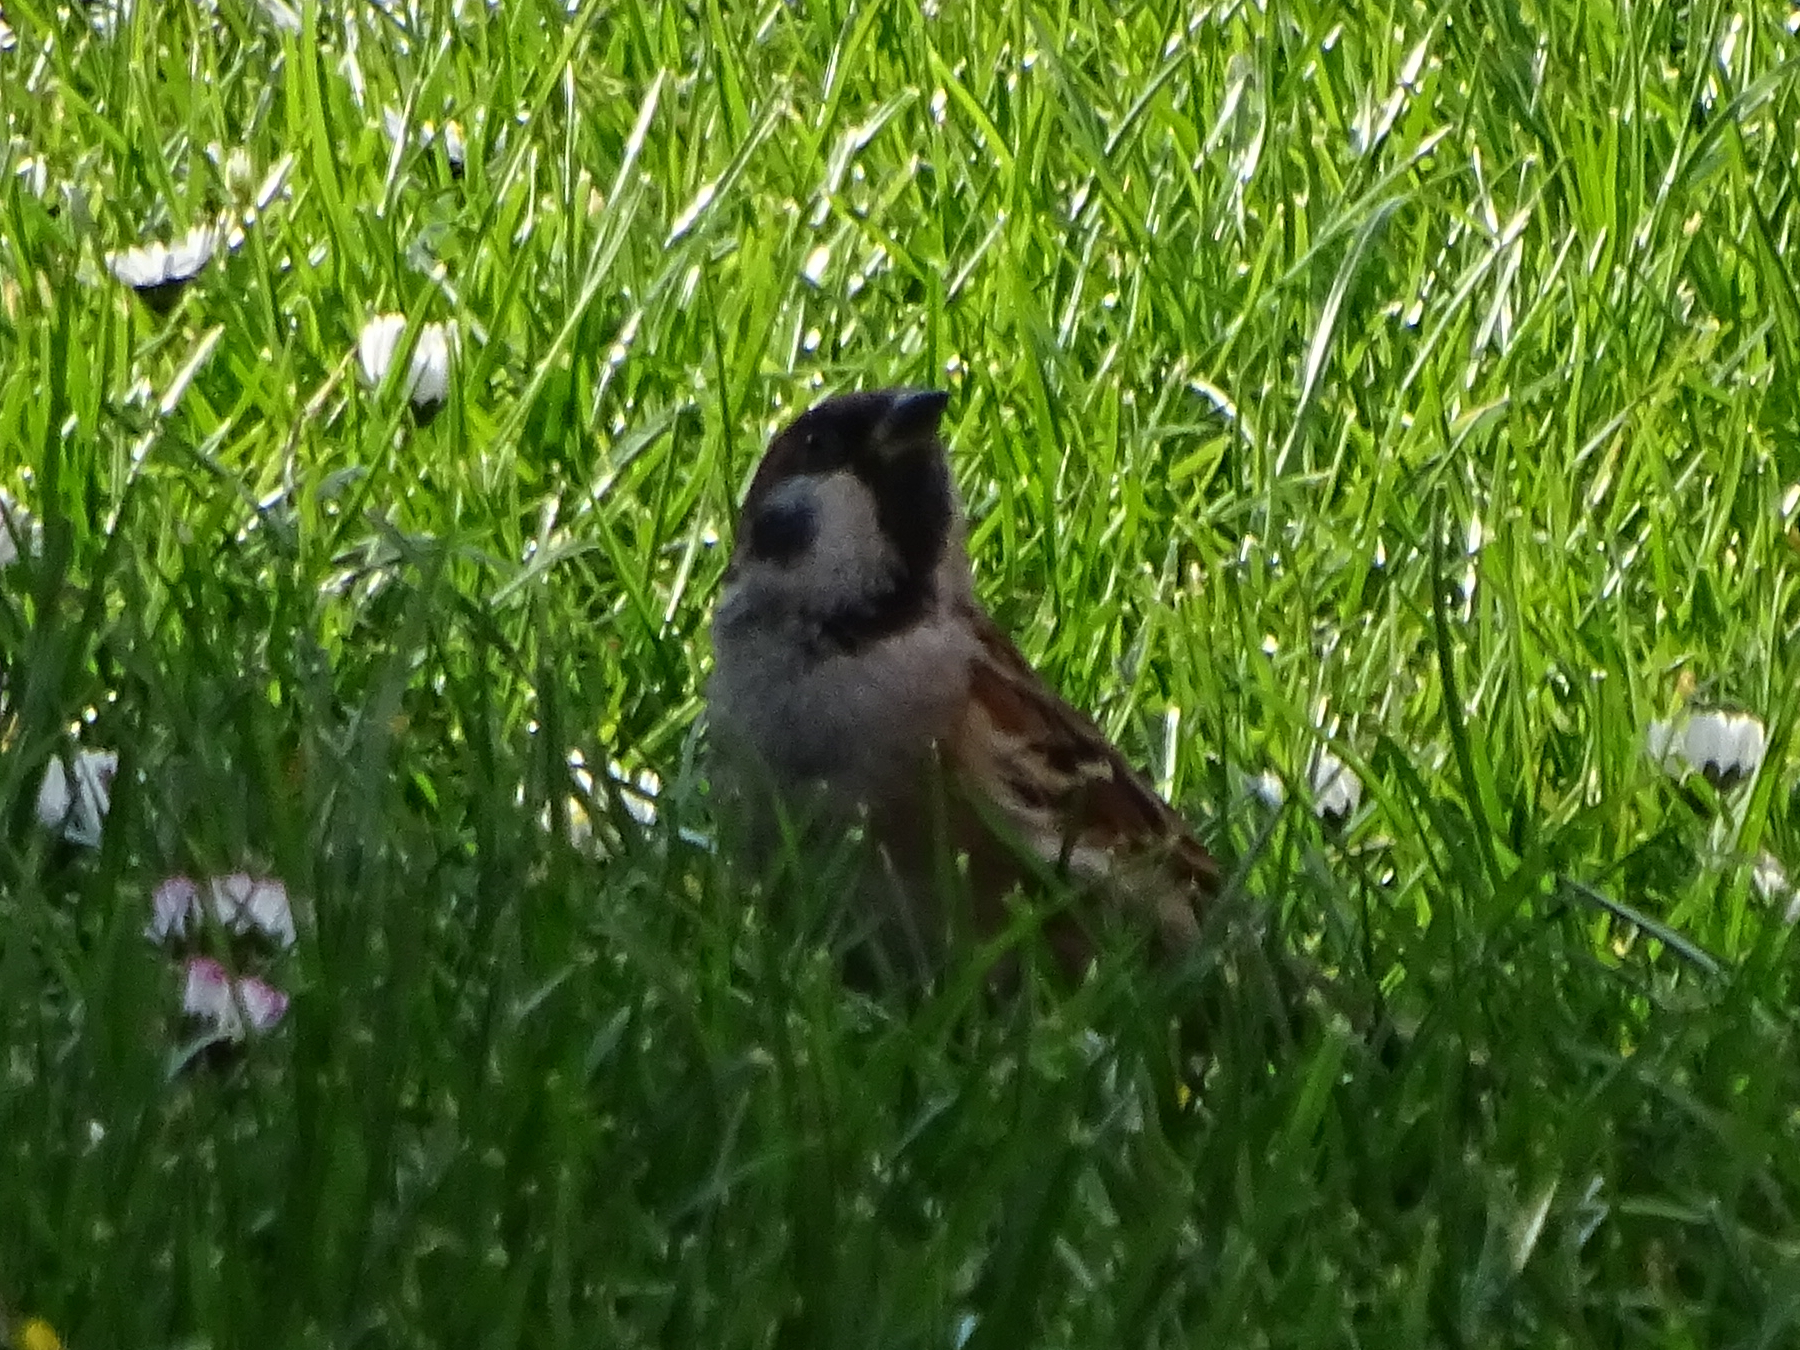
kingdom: Animalia
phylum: Chordata
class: Aves
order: Passeriformes
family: Passeridae
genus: Passer
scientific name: Passer montanus
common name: Eurasian tree sparrow
